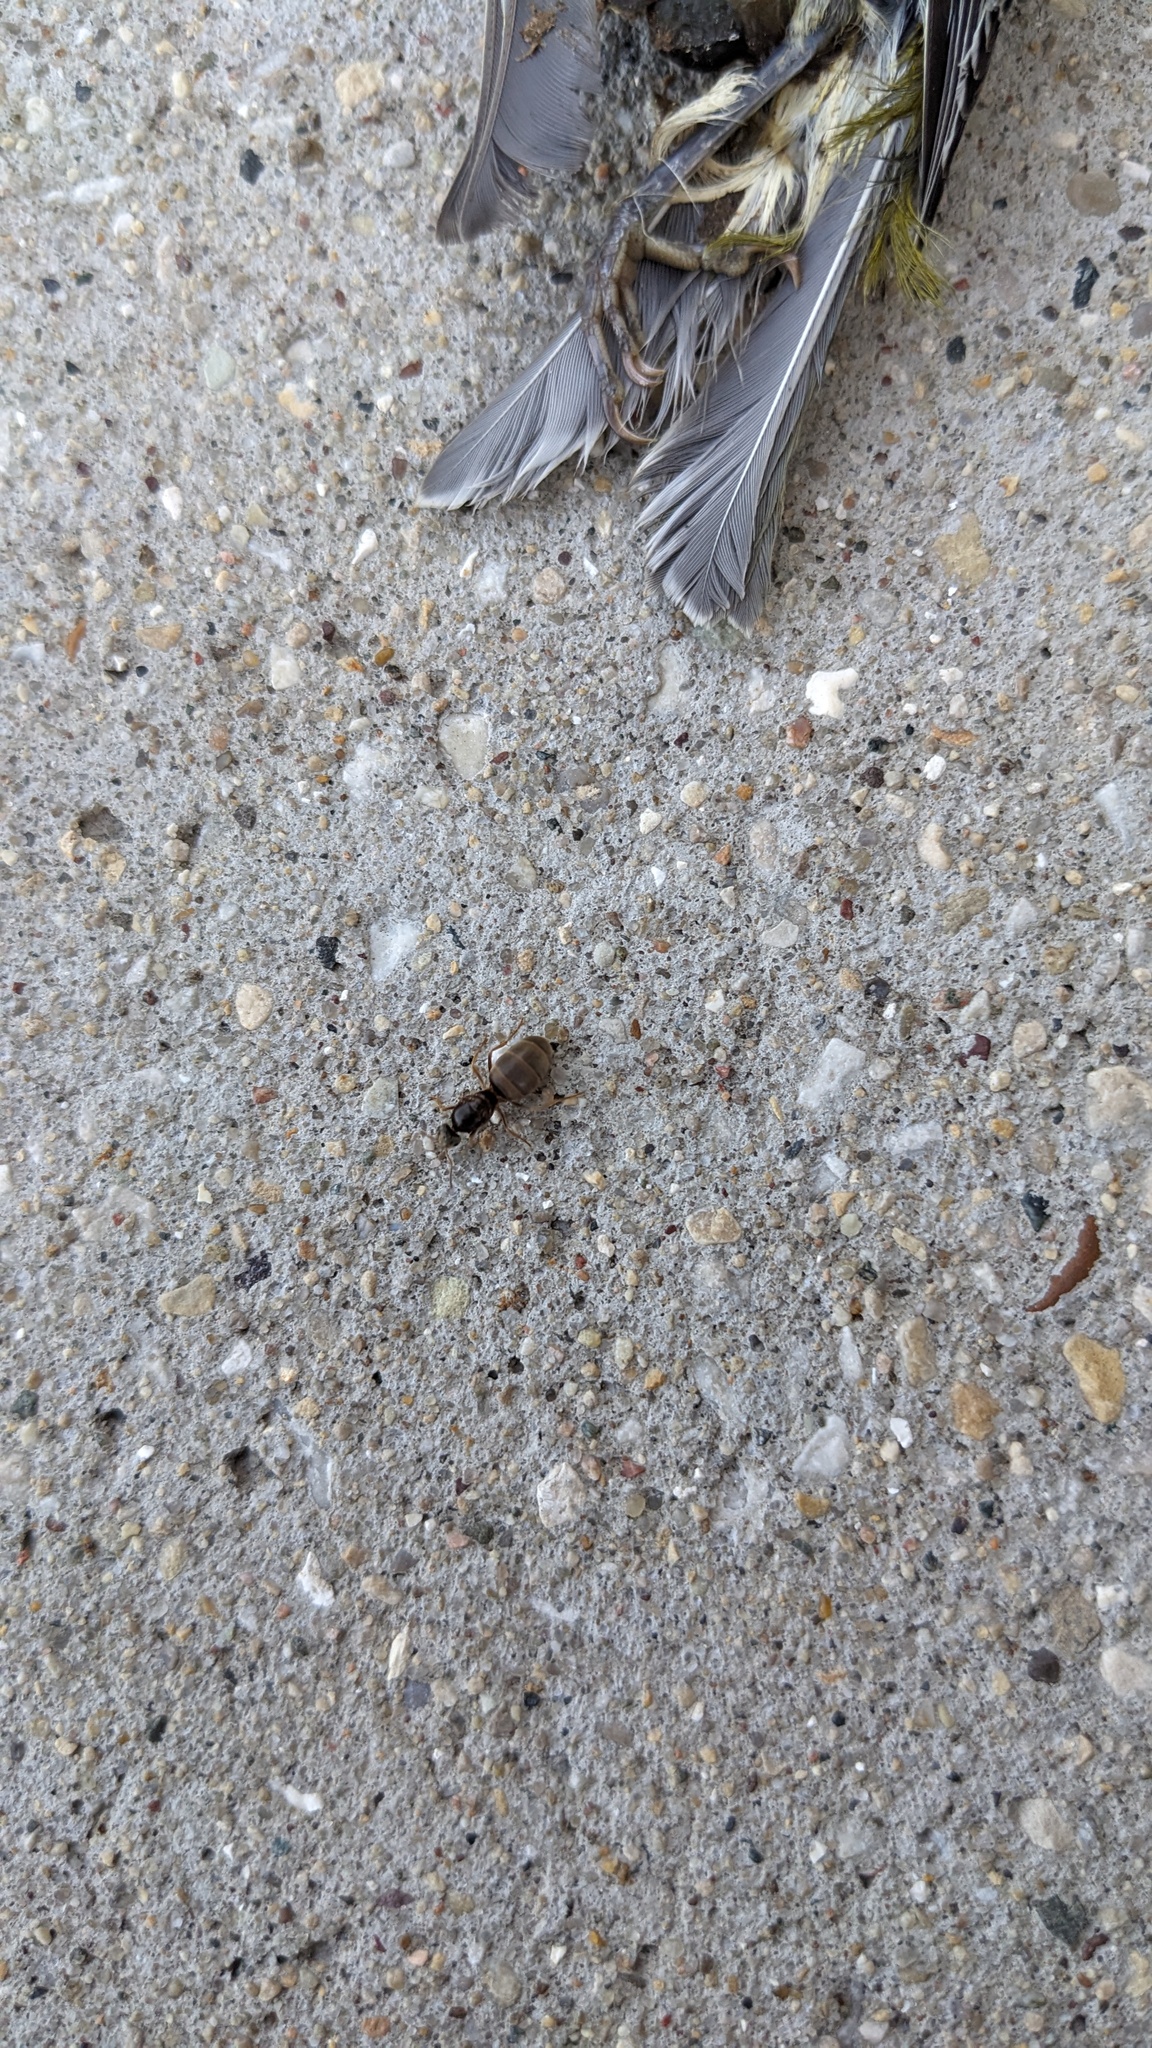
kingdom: Animalia
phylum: Arthropoda
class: Insecta
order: Hymenoptera
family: Formicidae
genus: Lasius
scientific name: Lasius neoniger
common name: Turfgrass ant
